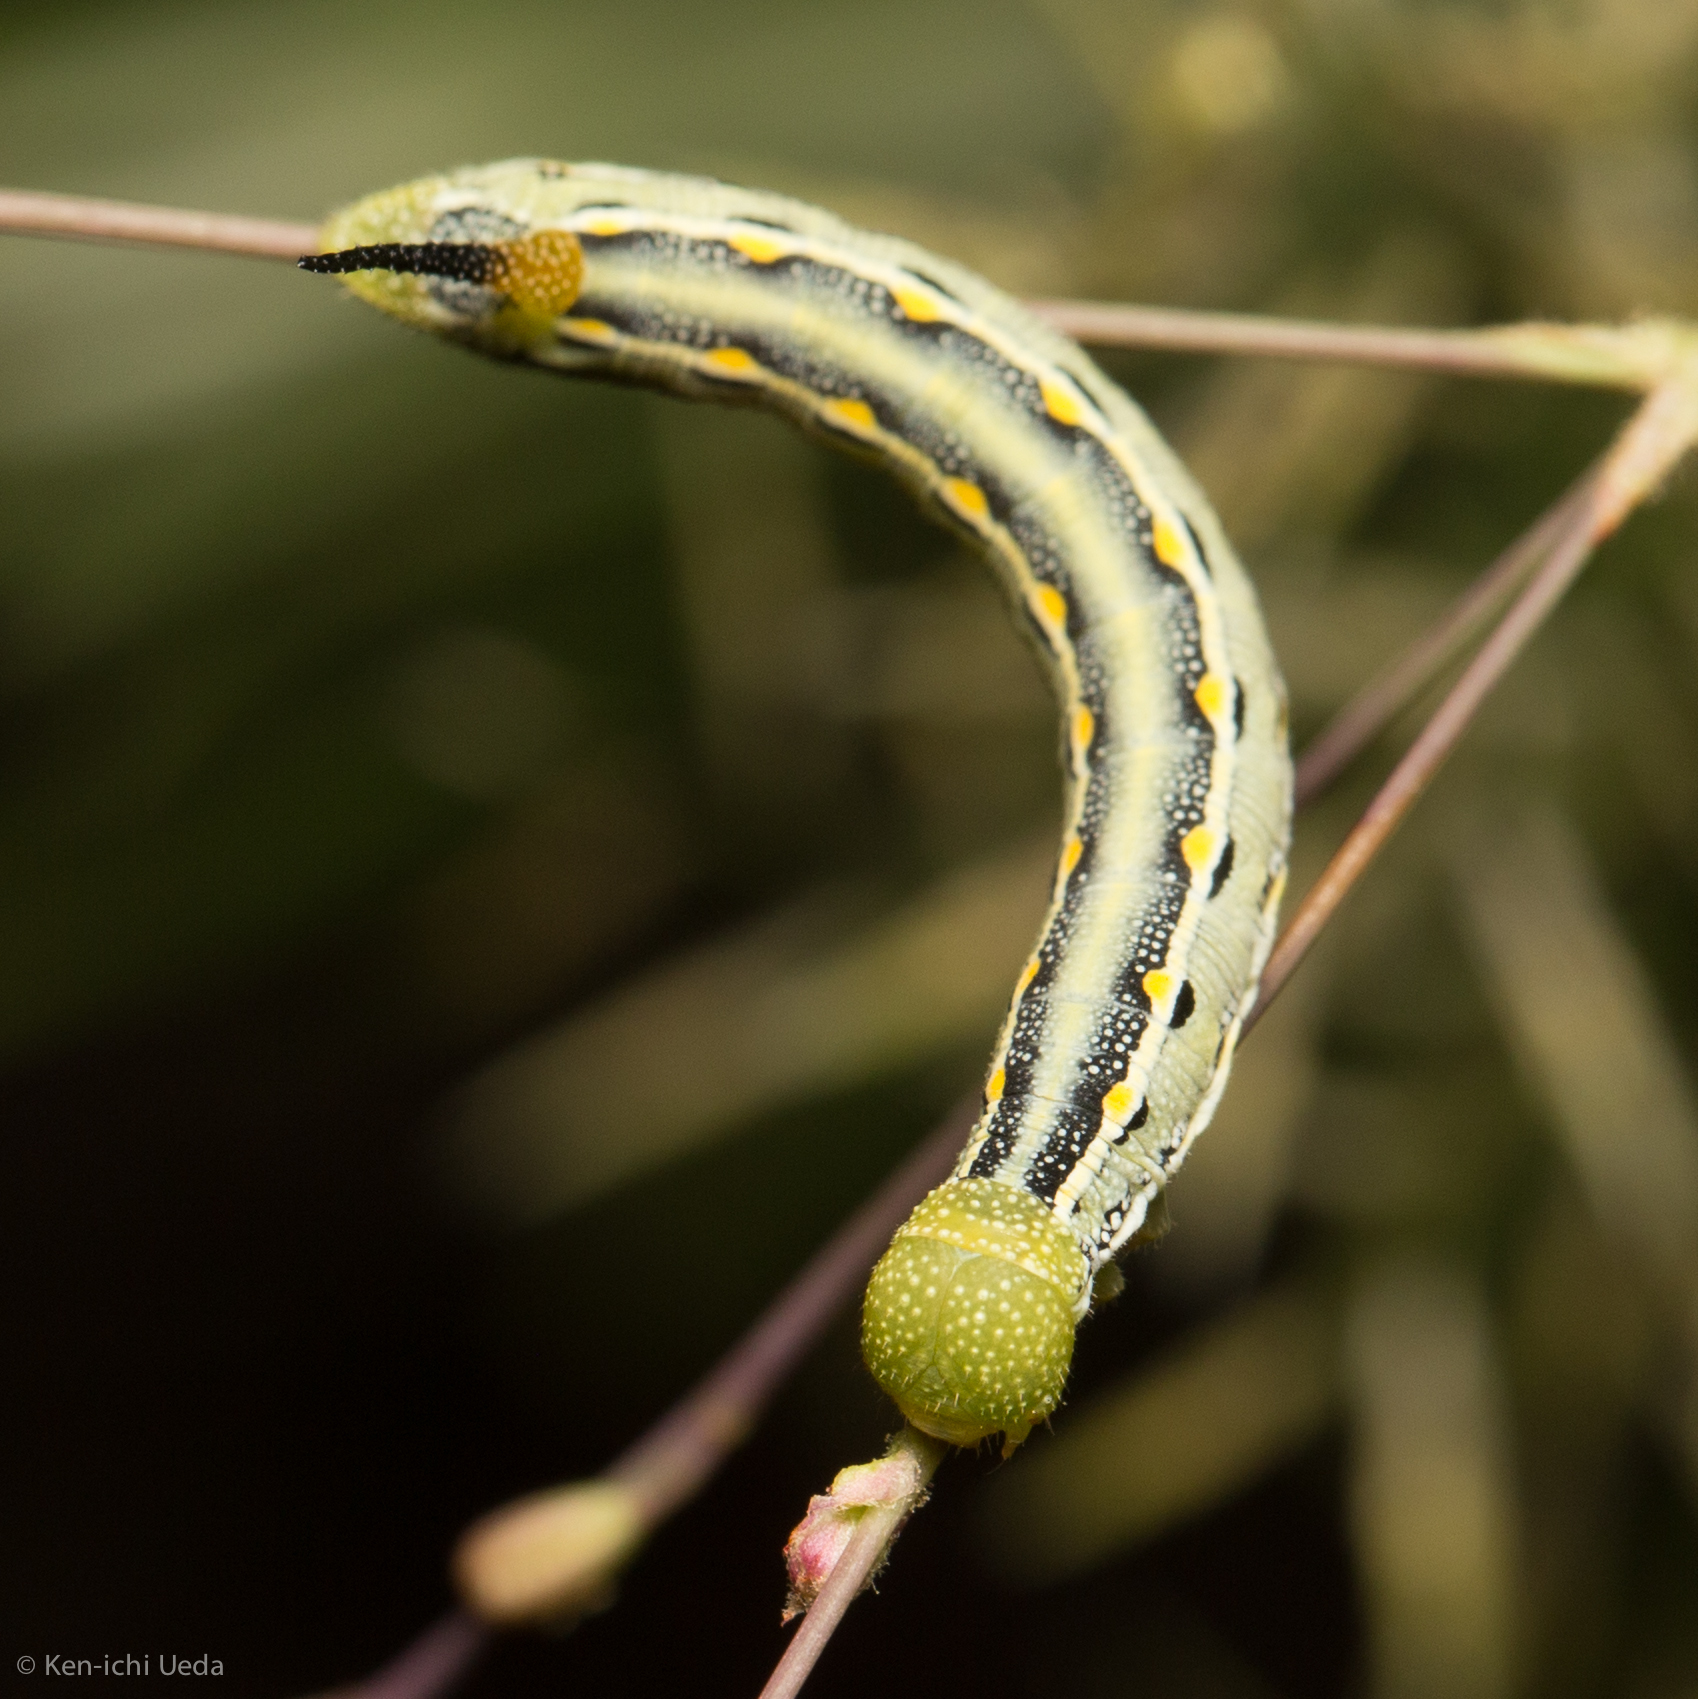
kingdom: Animalia
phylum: Arthropoda
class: Insecta
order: Lepidoptera
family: Sphingidae
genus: Hyles
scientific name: Hyles lineata
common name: White-lined sphinx
